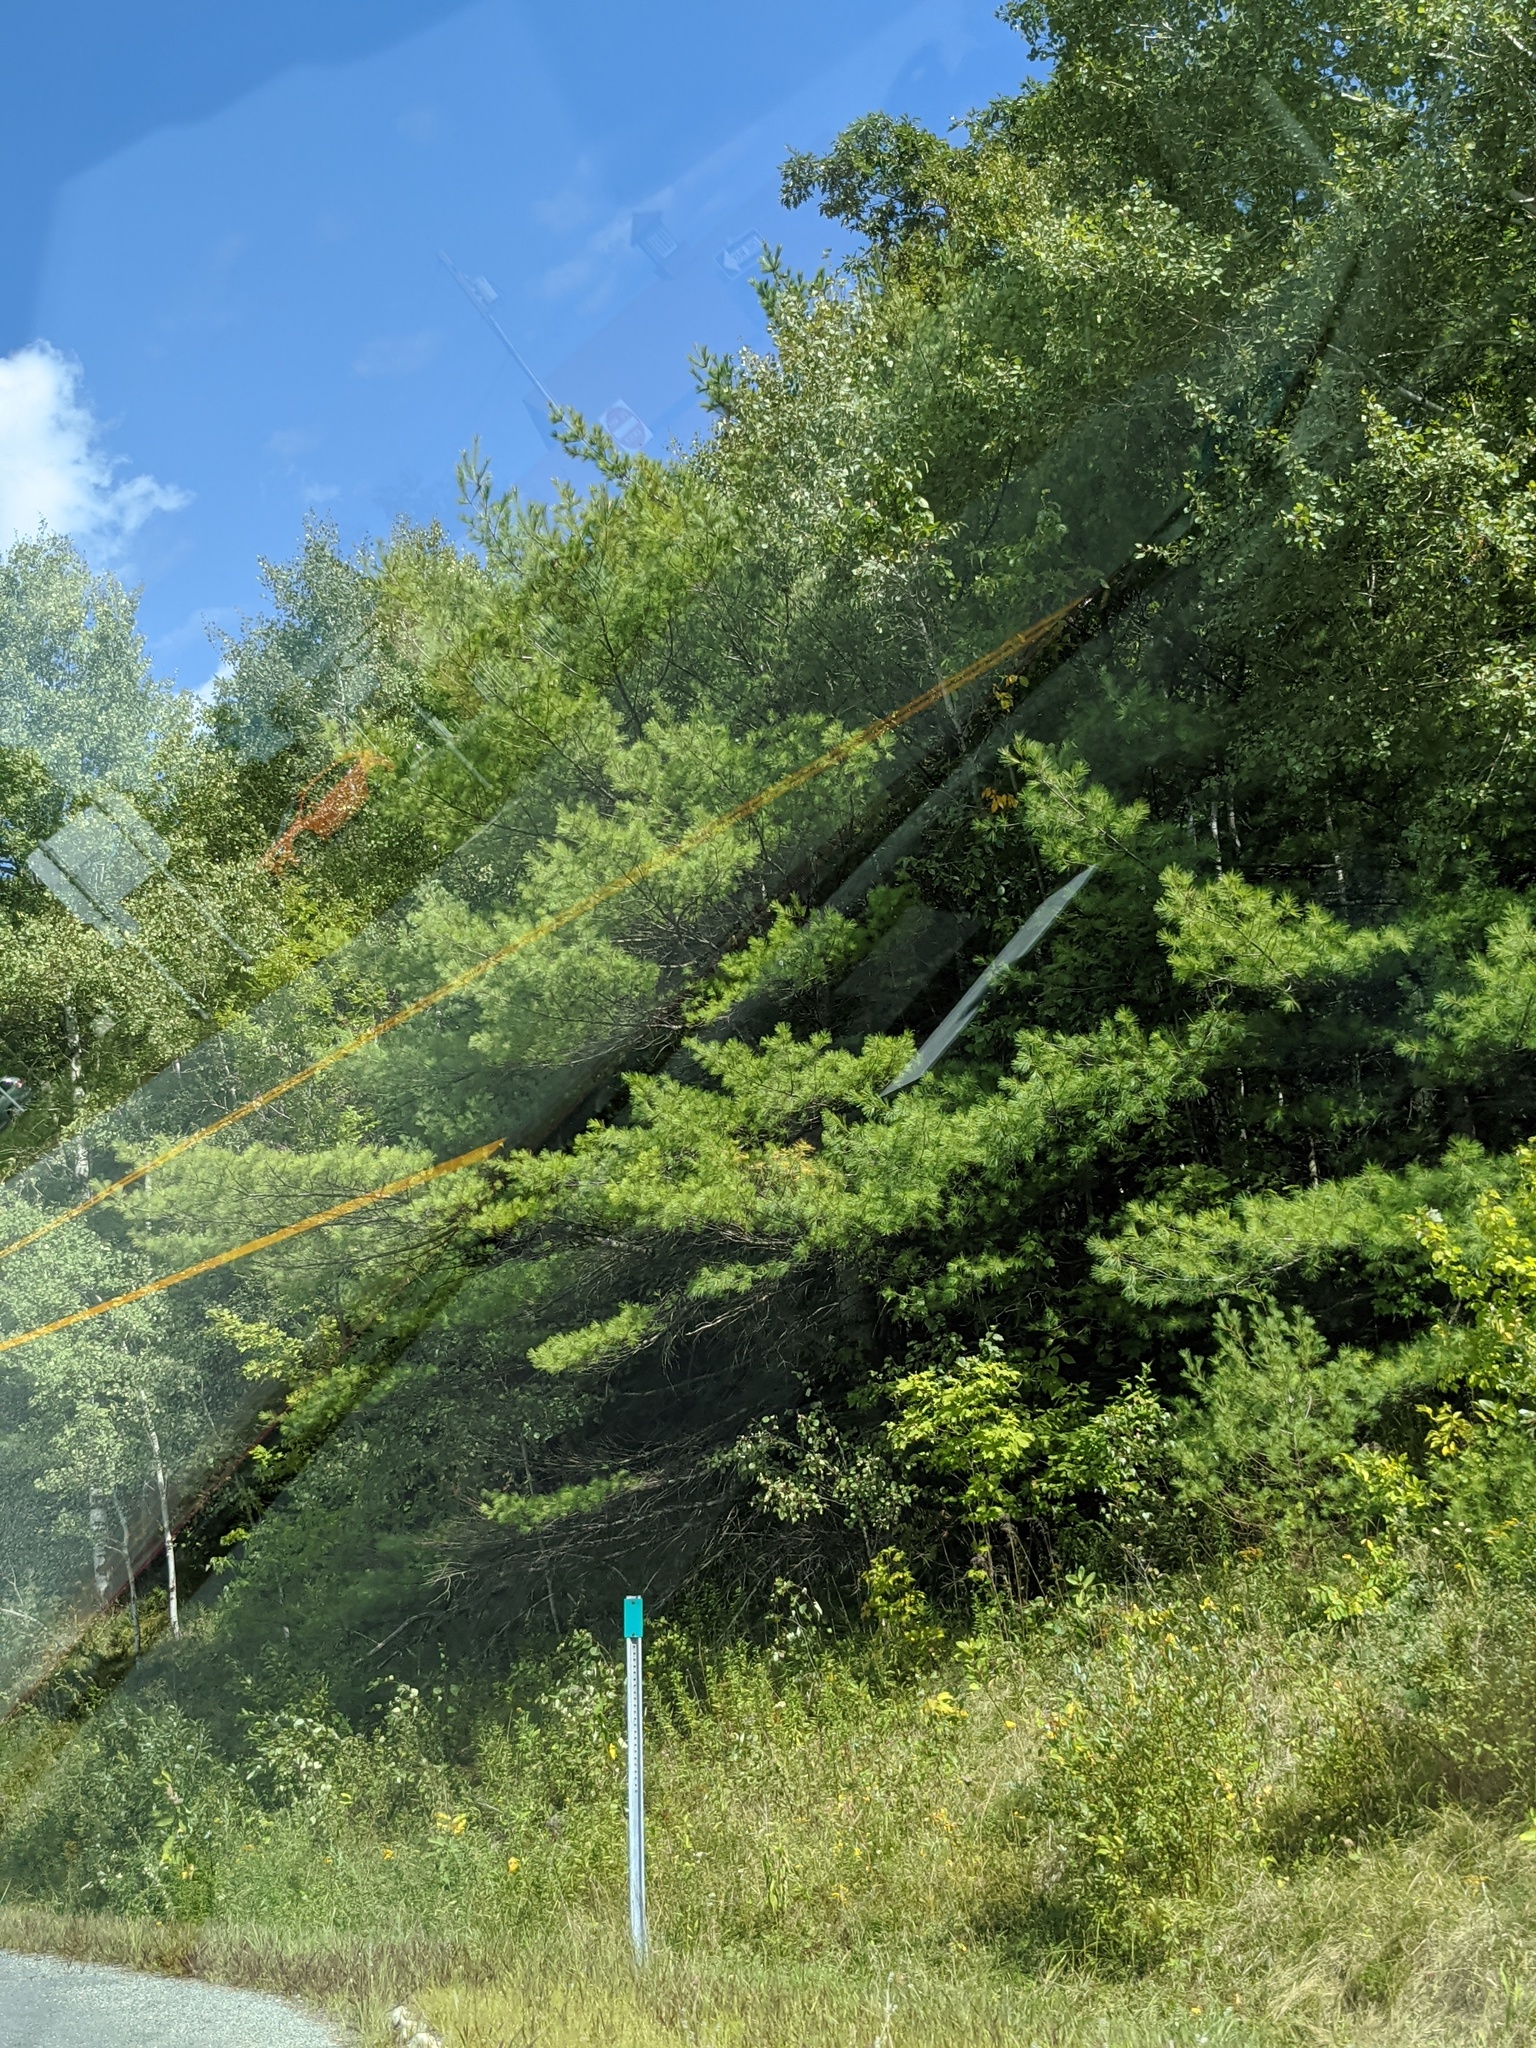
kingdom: Plantae
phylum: Tracheophyta
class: Pinopsida
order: Pinales
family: Pinaceae
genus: Pinus
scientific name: Pinus strobus
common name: Weymouth pine
